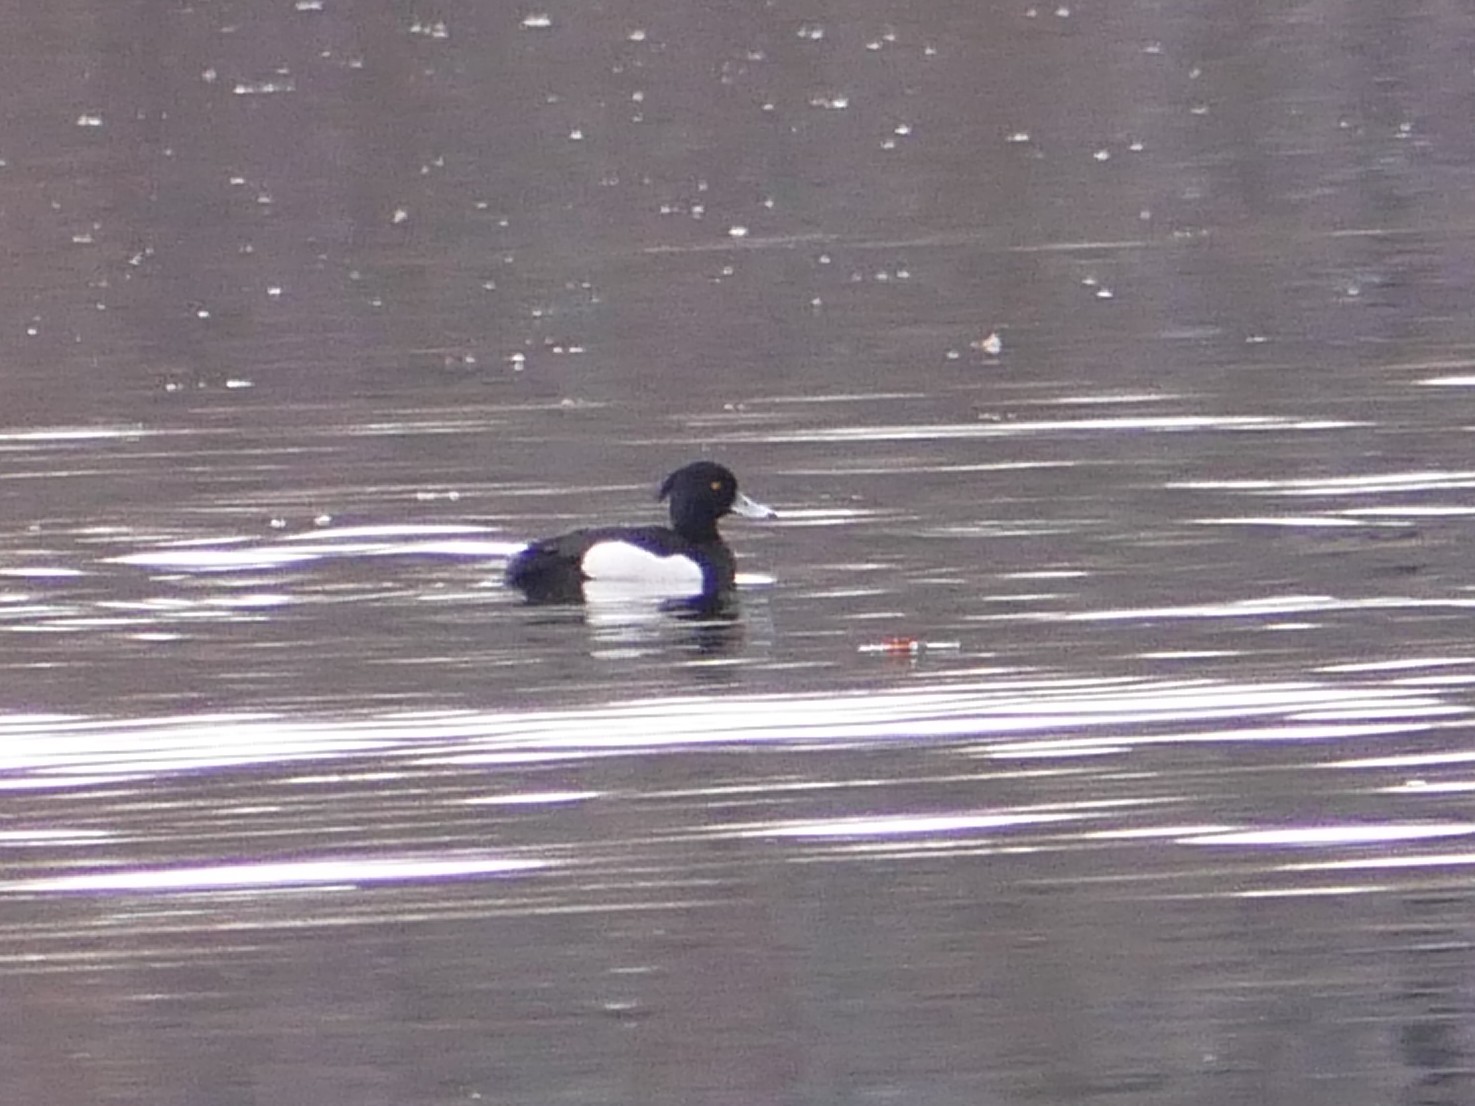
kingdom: Animalia
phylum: Chordata
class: Aves
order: Anseriformes
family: Anatidae
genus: Aythya
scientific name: Aythya fuligula
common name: Tufted duck
